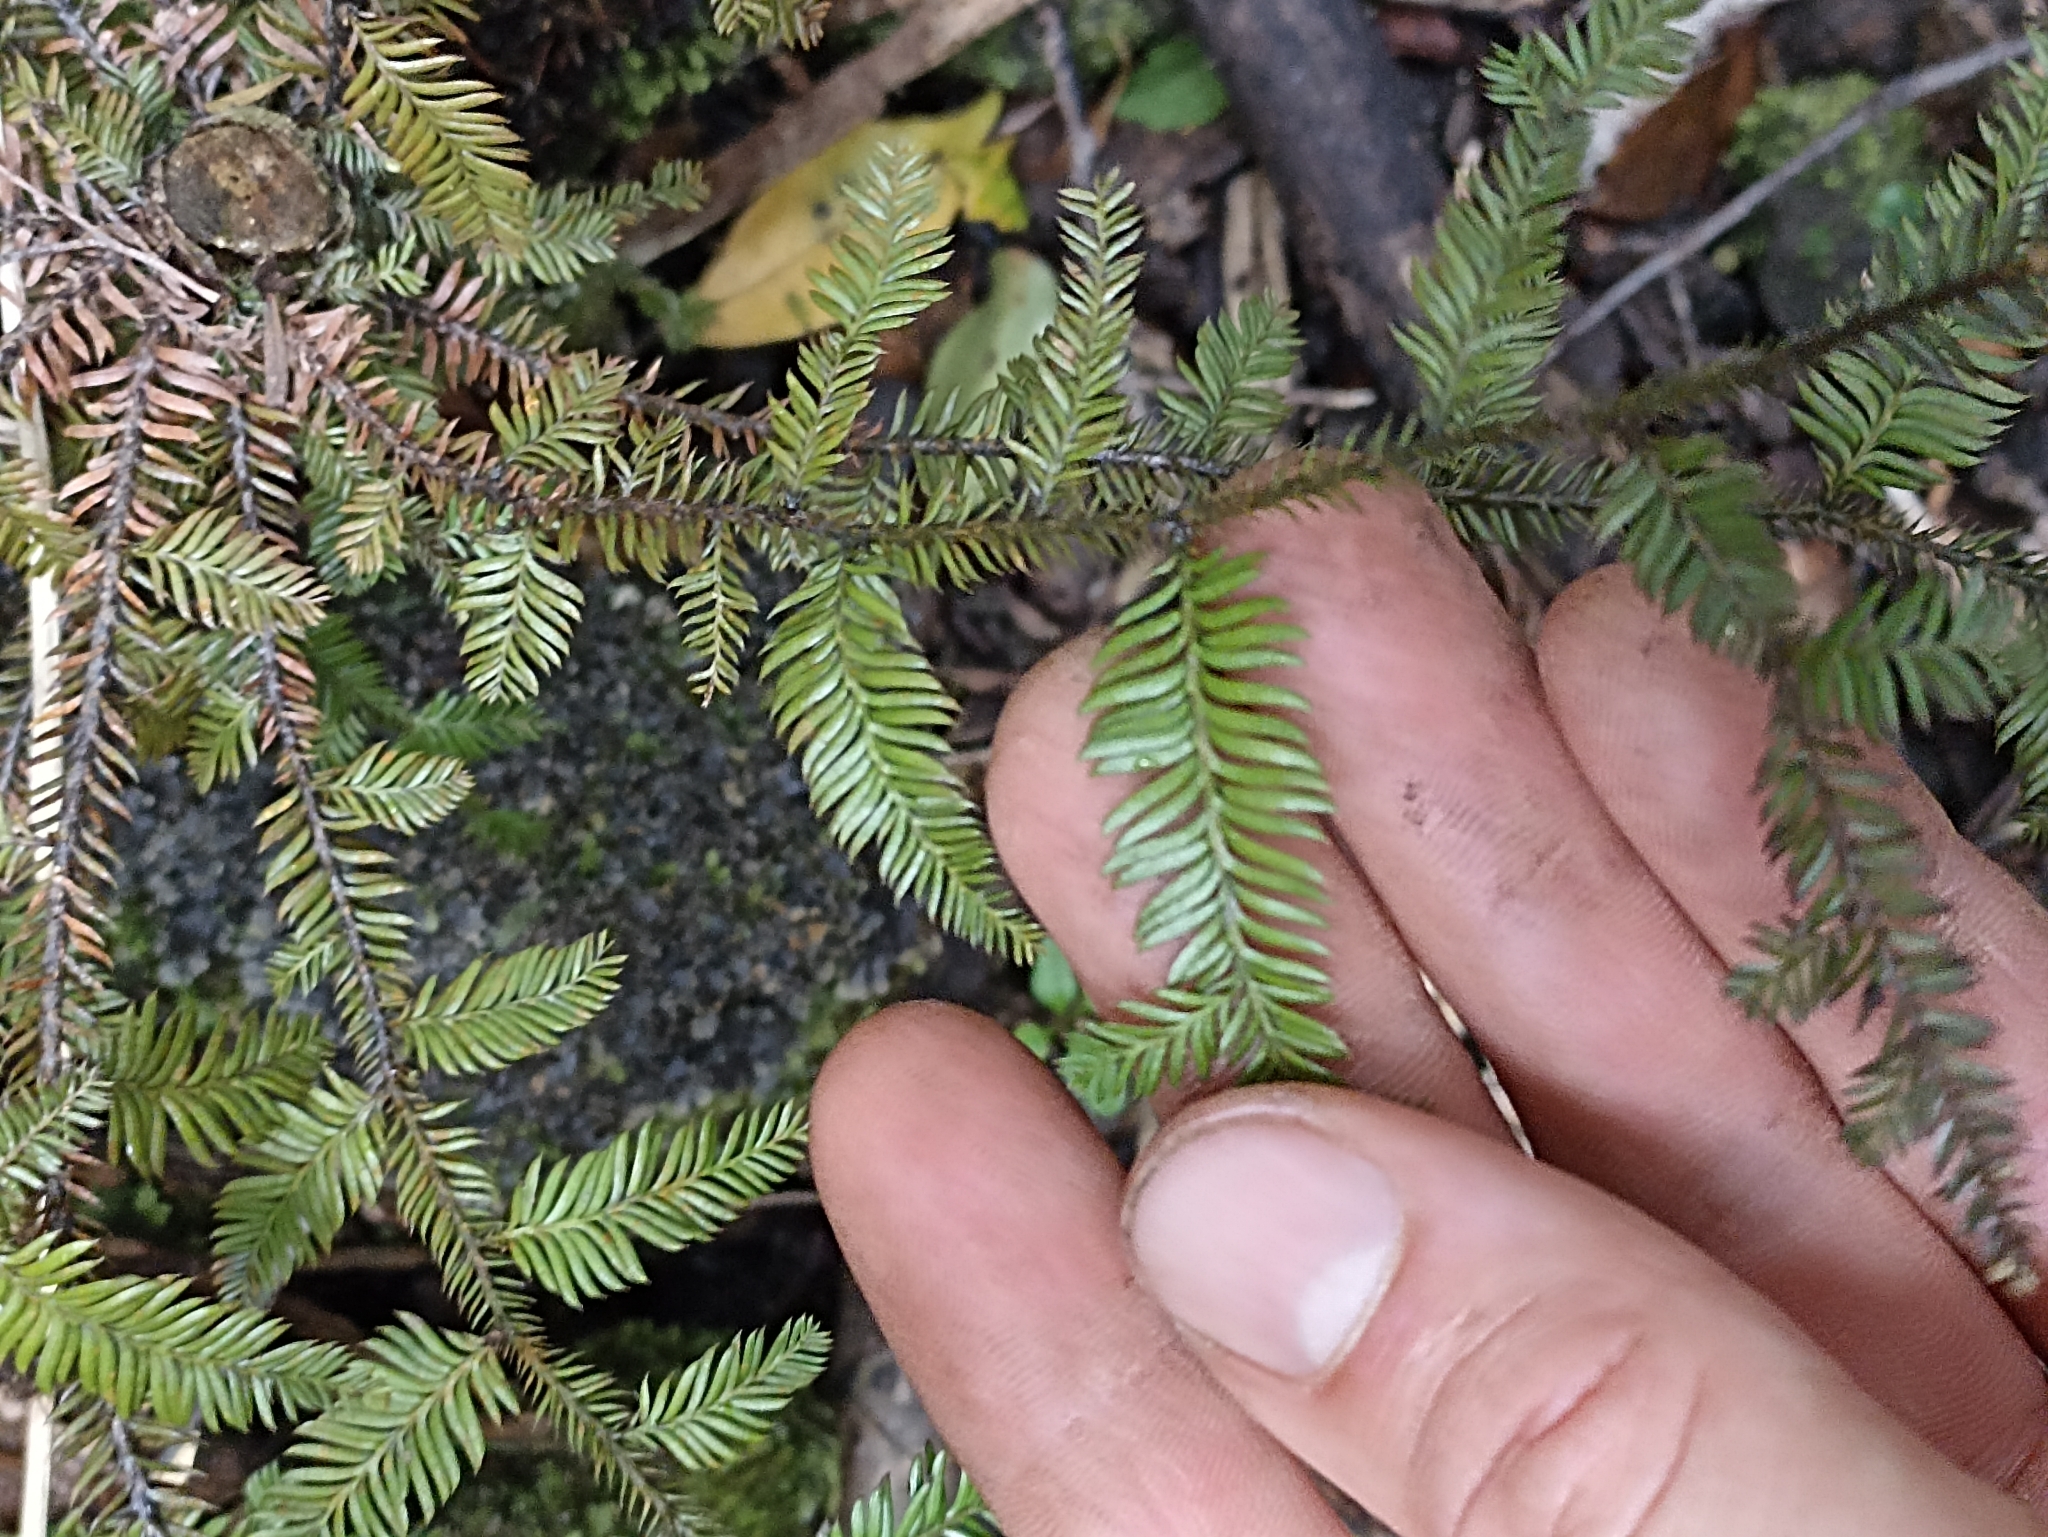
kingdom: Plantae
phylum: Tracheophyta
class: Pinopsida
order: Pinales
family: Podocarpaceae
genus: Dacrycarpus
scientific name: Dacrycarpus dacrydioides
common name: White pine
